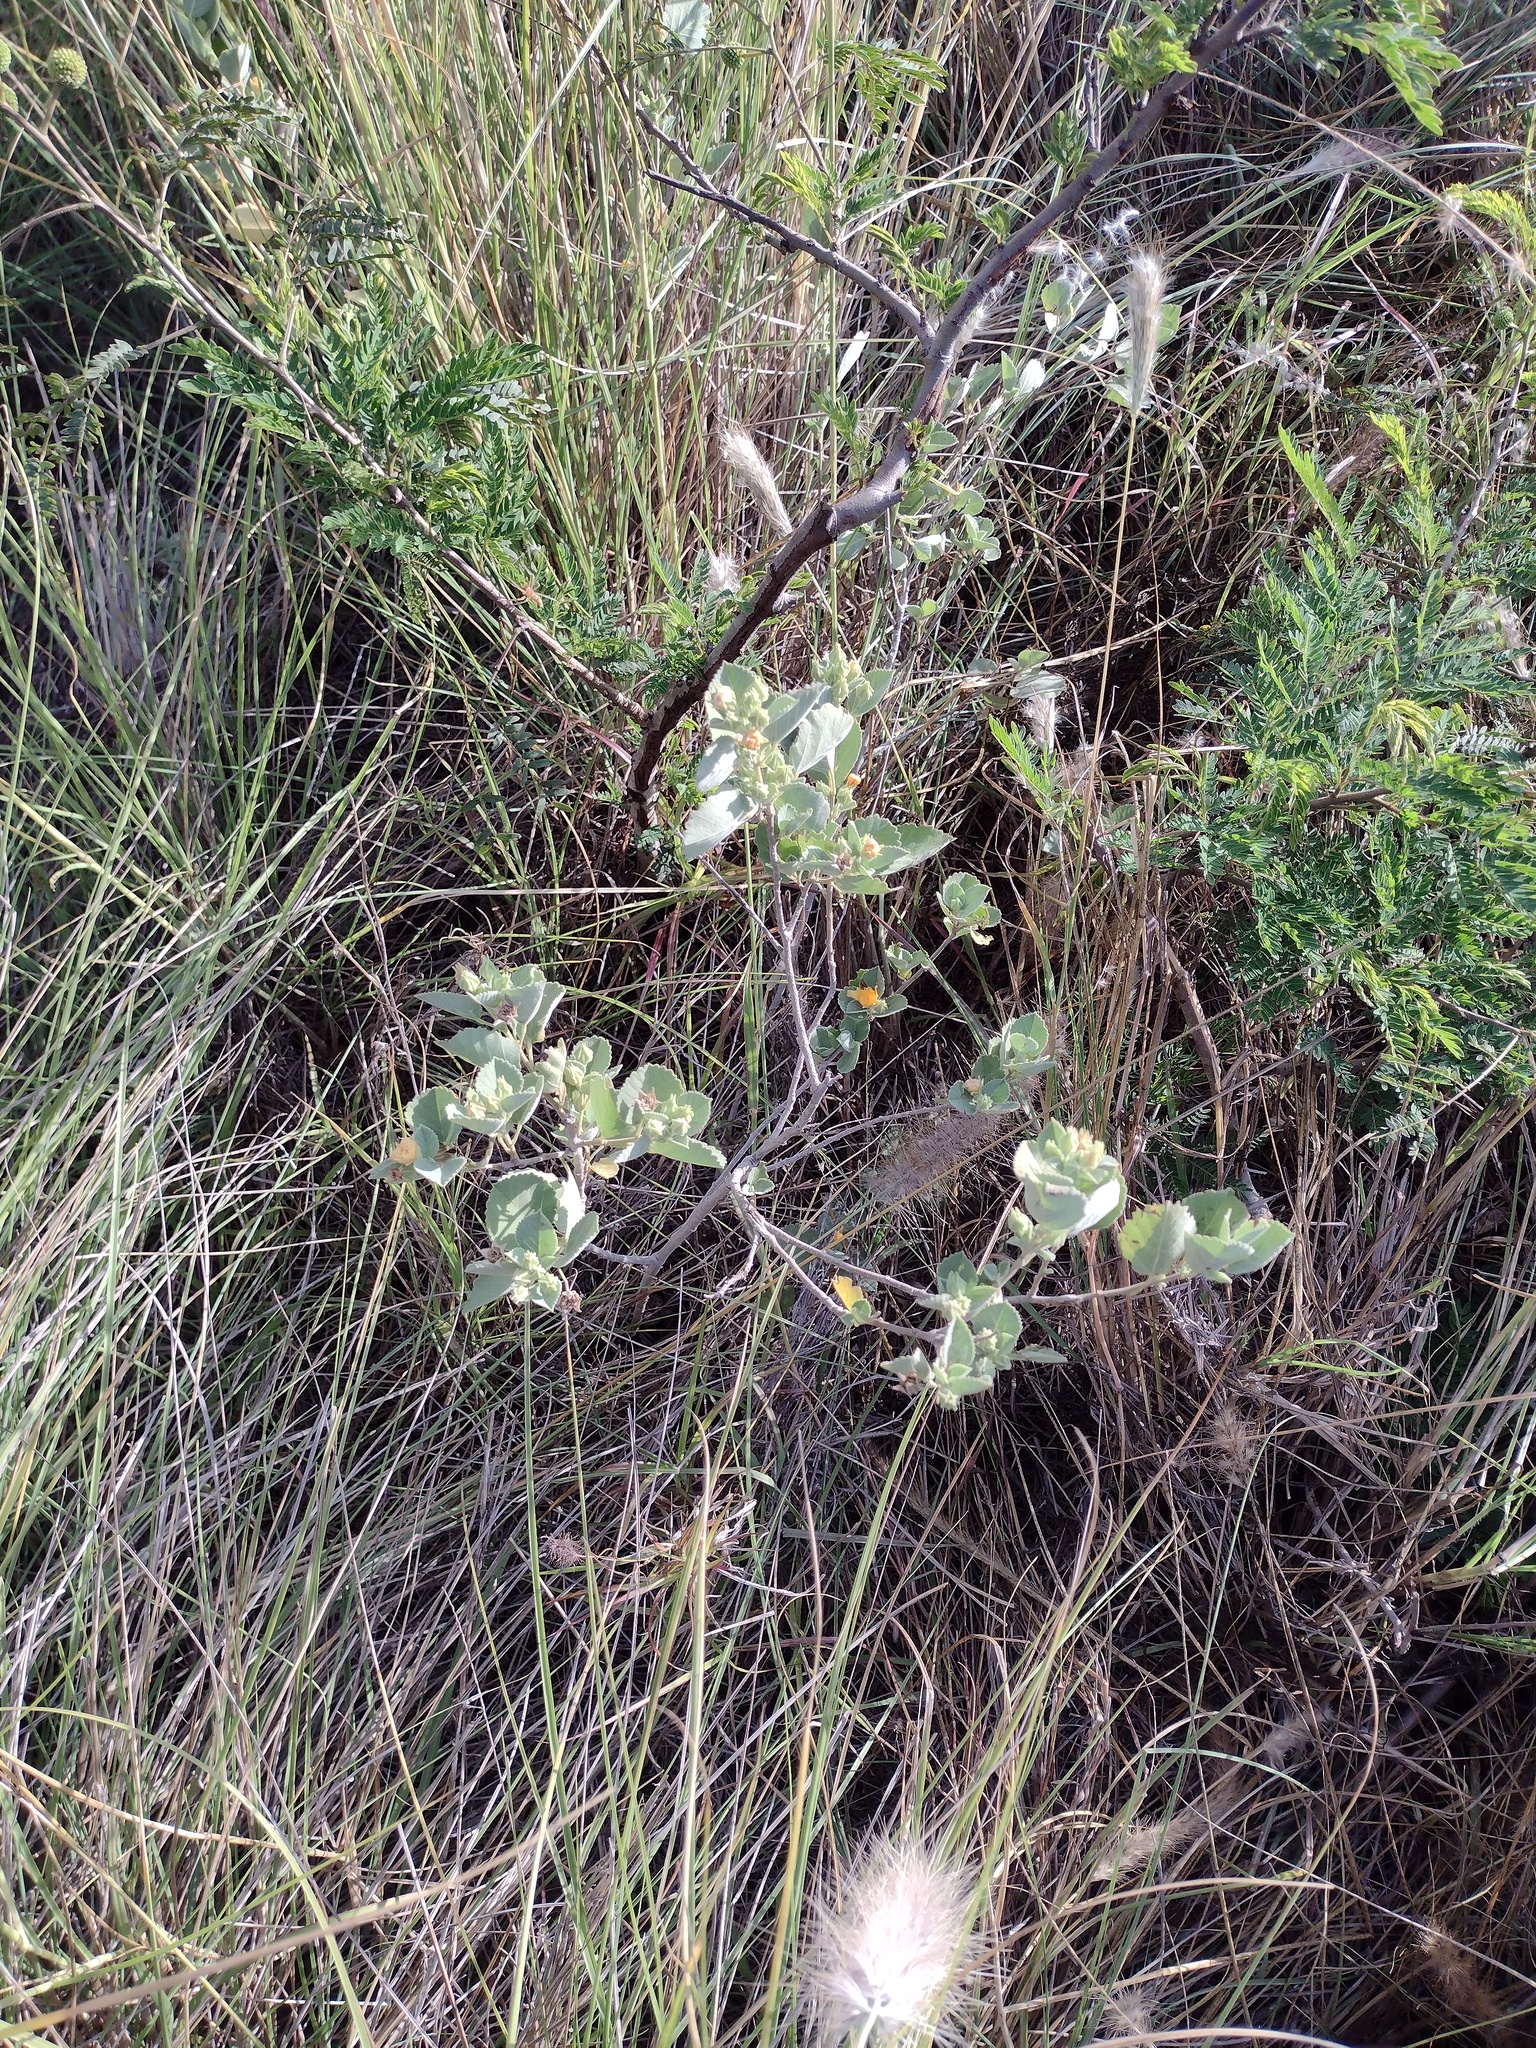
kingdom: Plantae
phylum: Tracheophyta
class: Magnoliopsida
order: Malvales
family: Malvaceae
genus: Sida
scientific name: Sida fallax
